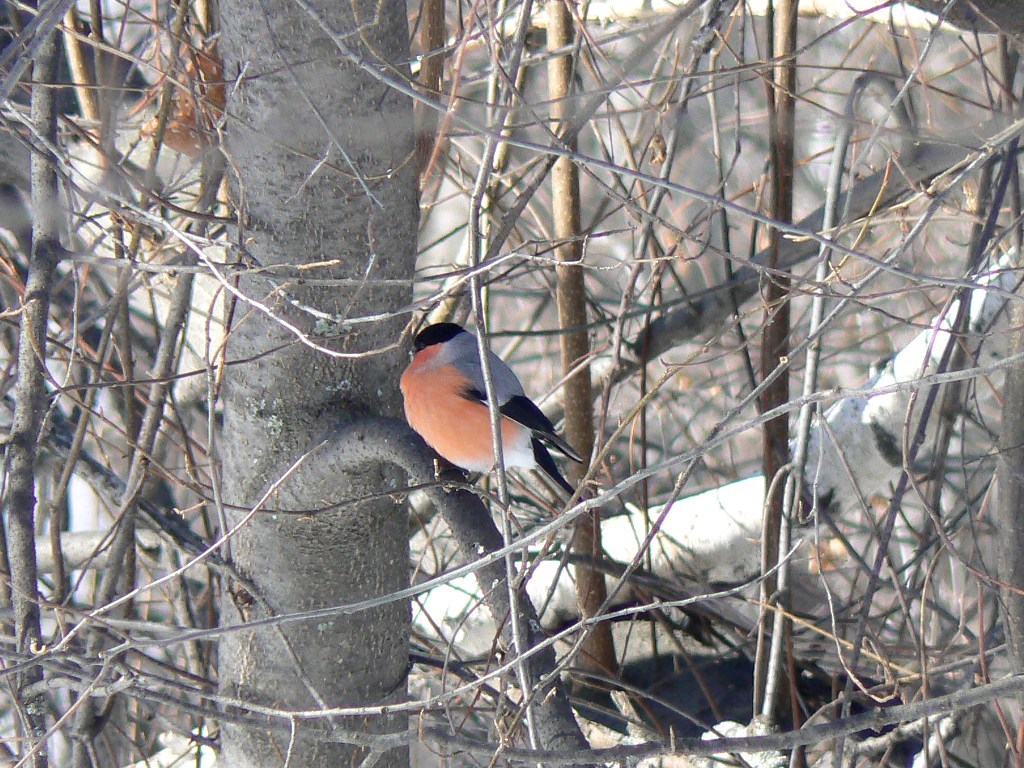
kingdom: Animalia
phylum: Chordata
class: Aves
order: Passeriformes
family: Fringillidae
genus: Pyrrhula
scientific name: Pyrrhula pyrrhula
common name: Eurasian bullfinch
